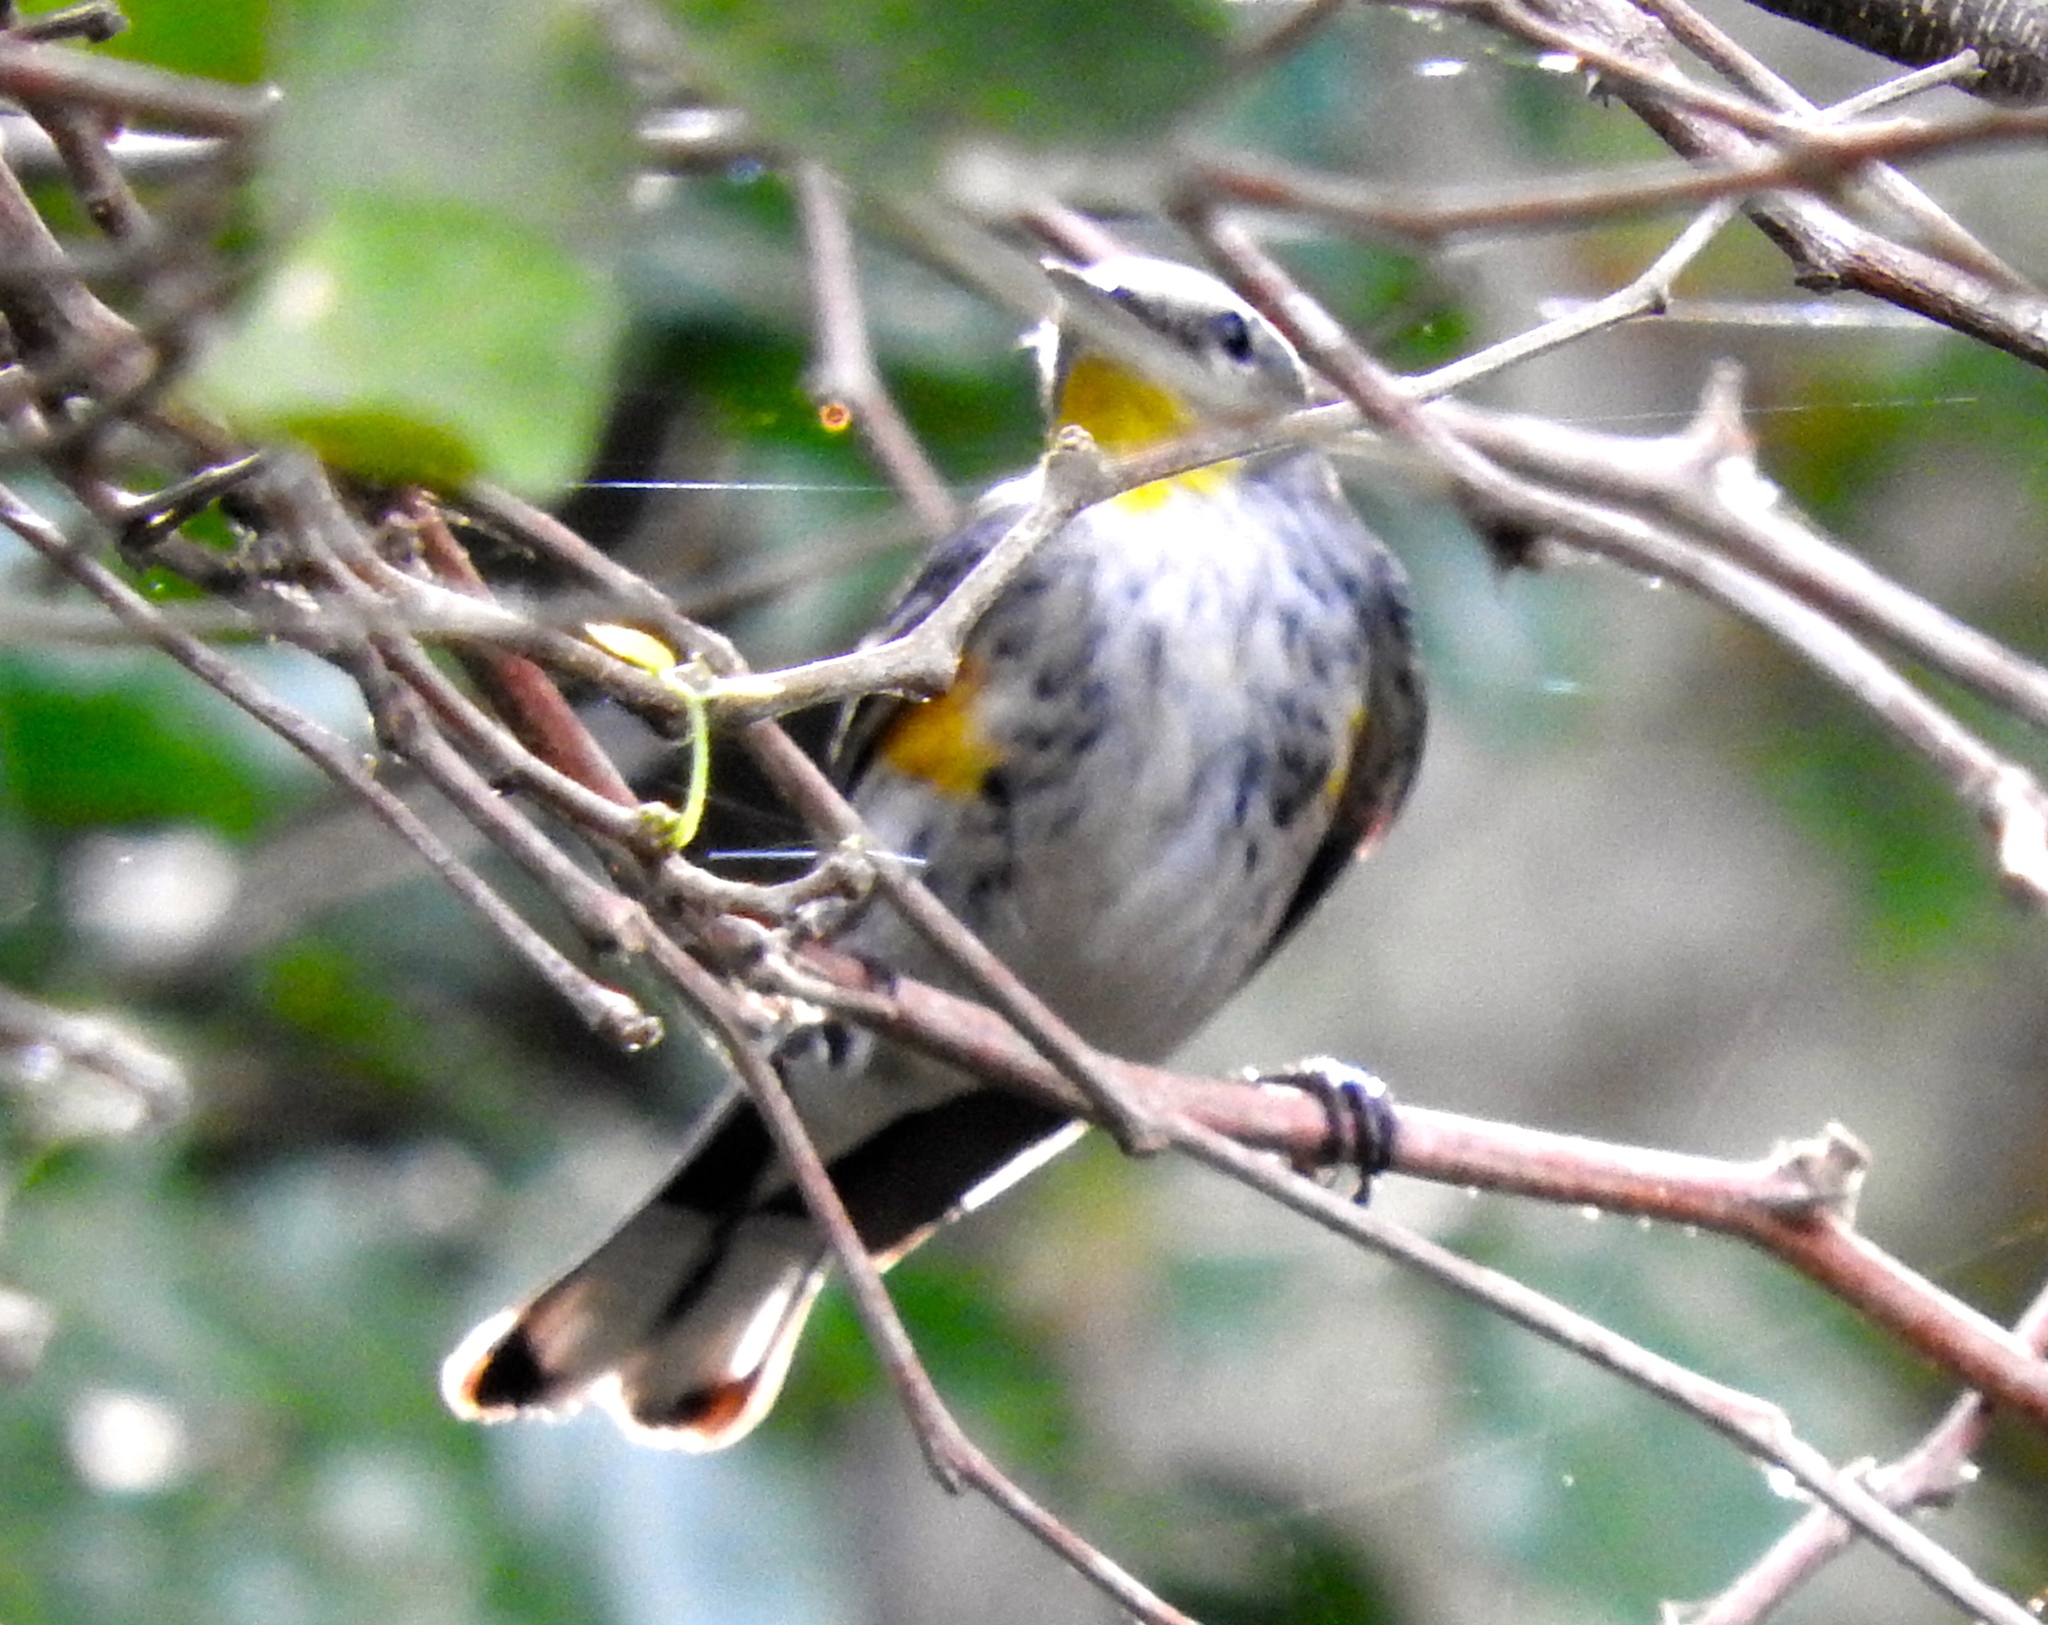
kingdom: Animalia
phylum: Chordata
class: Aves
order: Passeriformes
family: Parulidae
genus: Setophaga
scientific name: Setophaga auduboni
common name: Audubon's warbler
